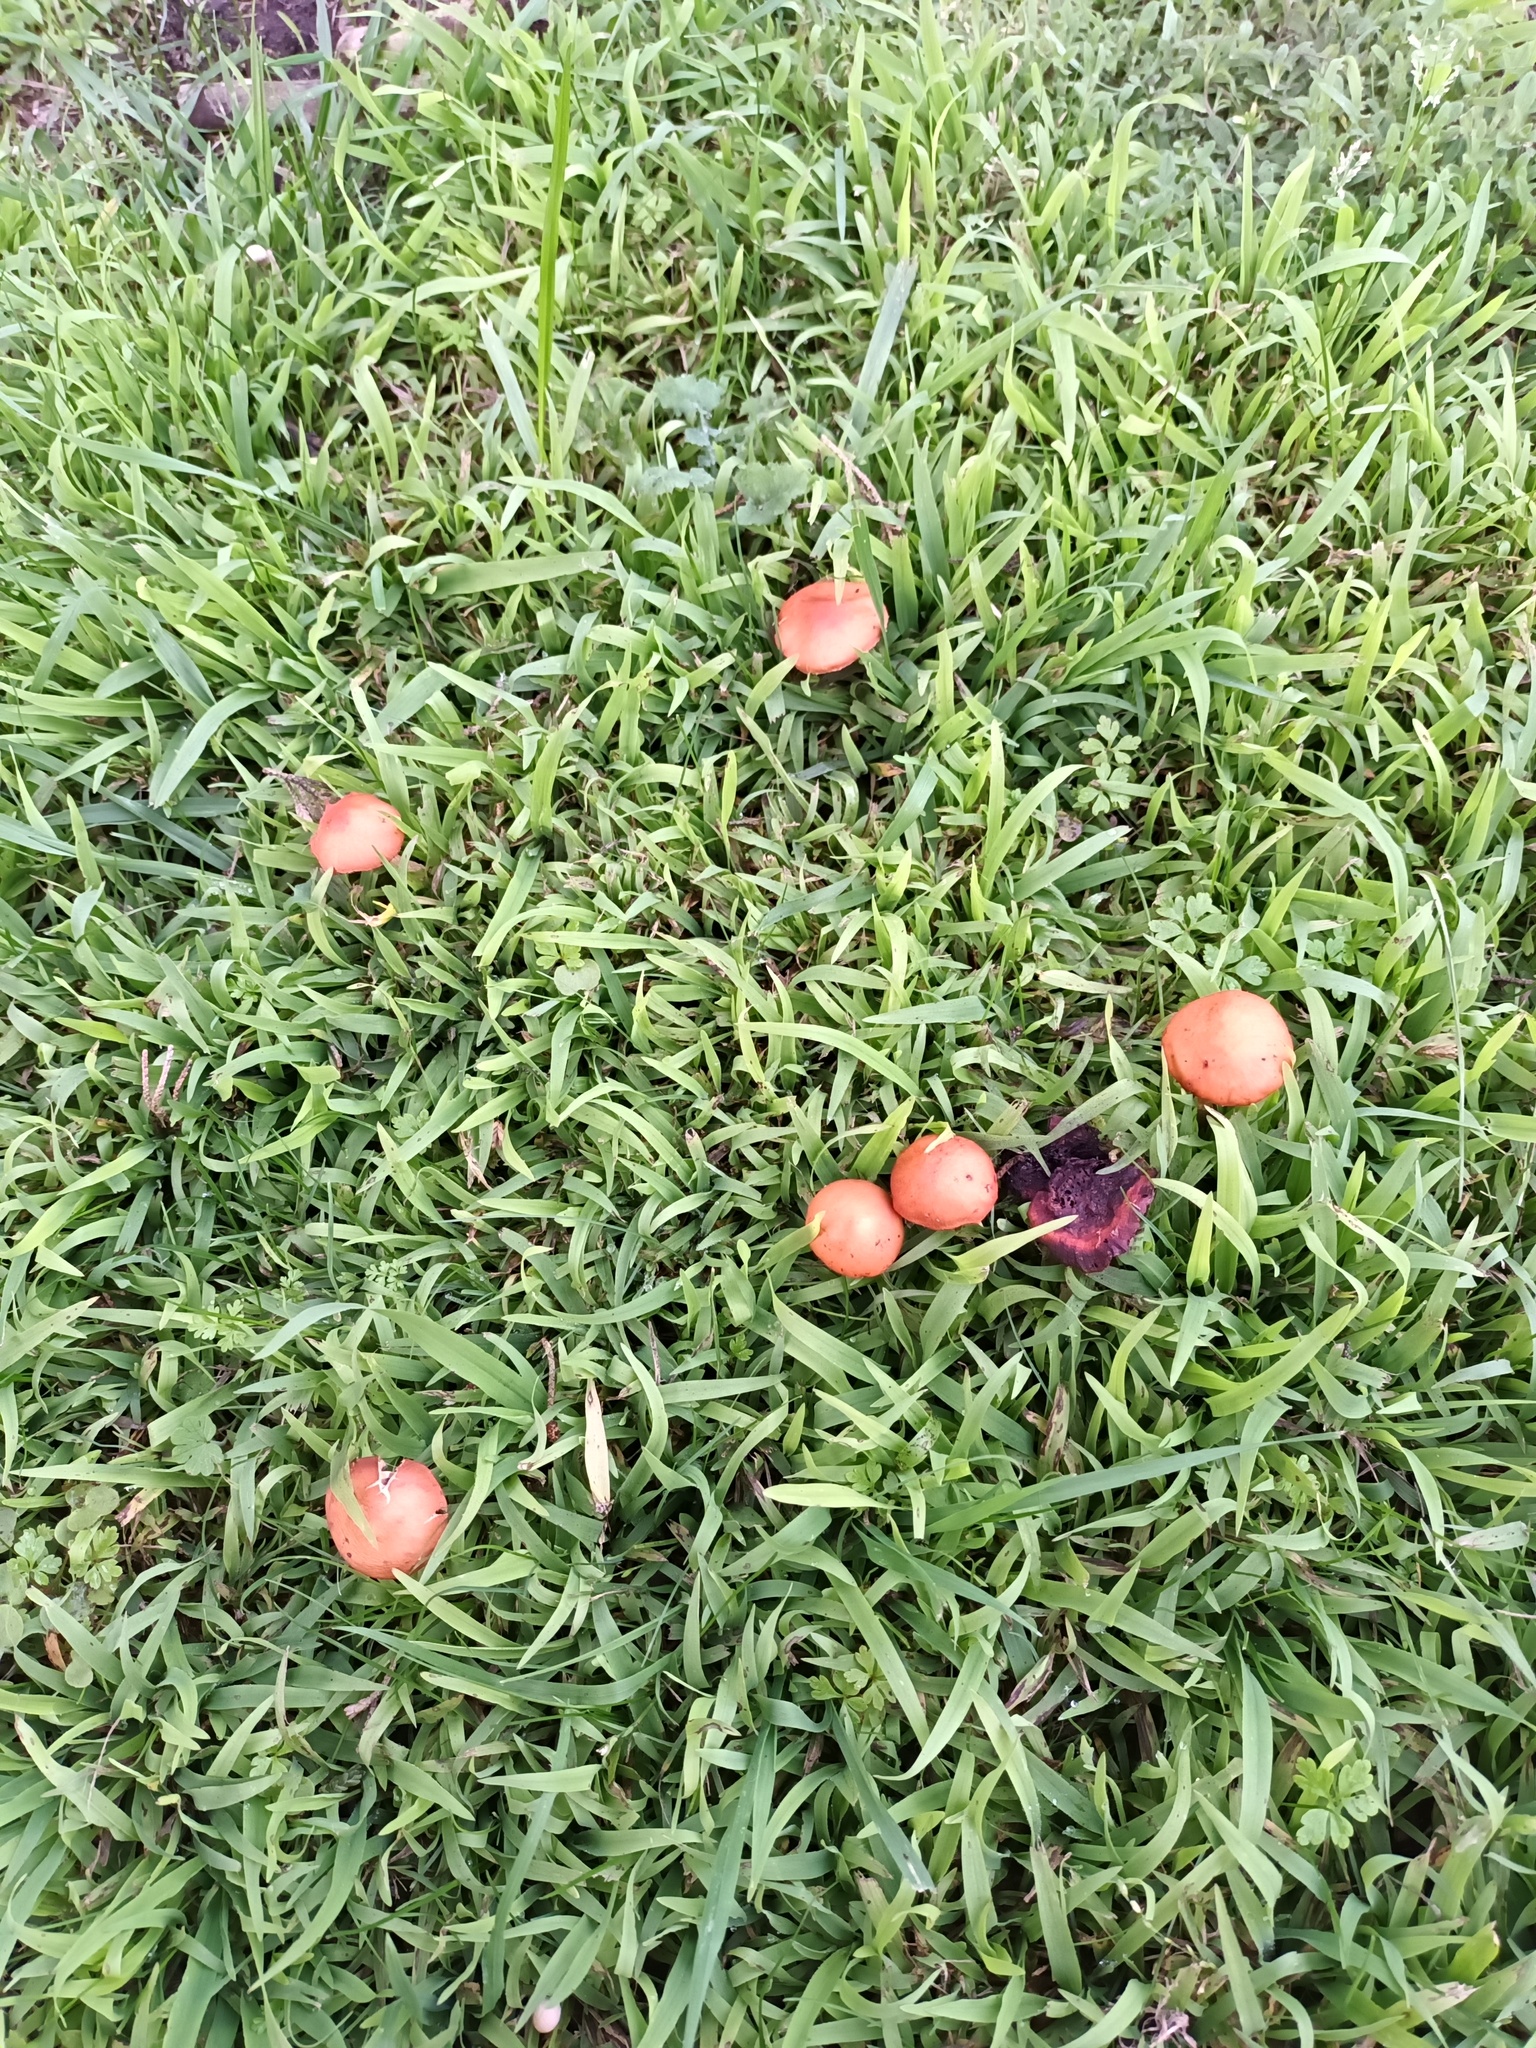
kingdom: Fungi
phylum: Basidiomycota
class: Agaricomycetes
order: Agaricales
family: Strophariaceae
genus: Leratiomyces
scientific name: Leratiomyces ceres
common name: Redlead roundhead
